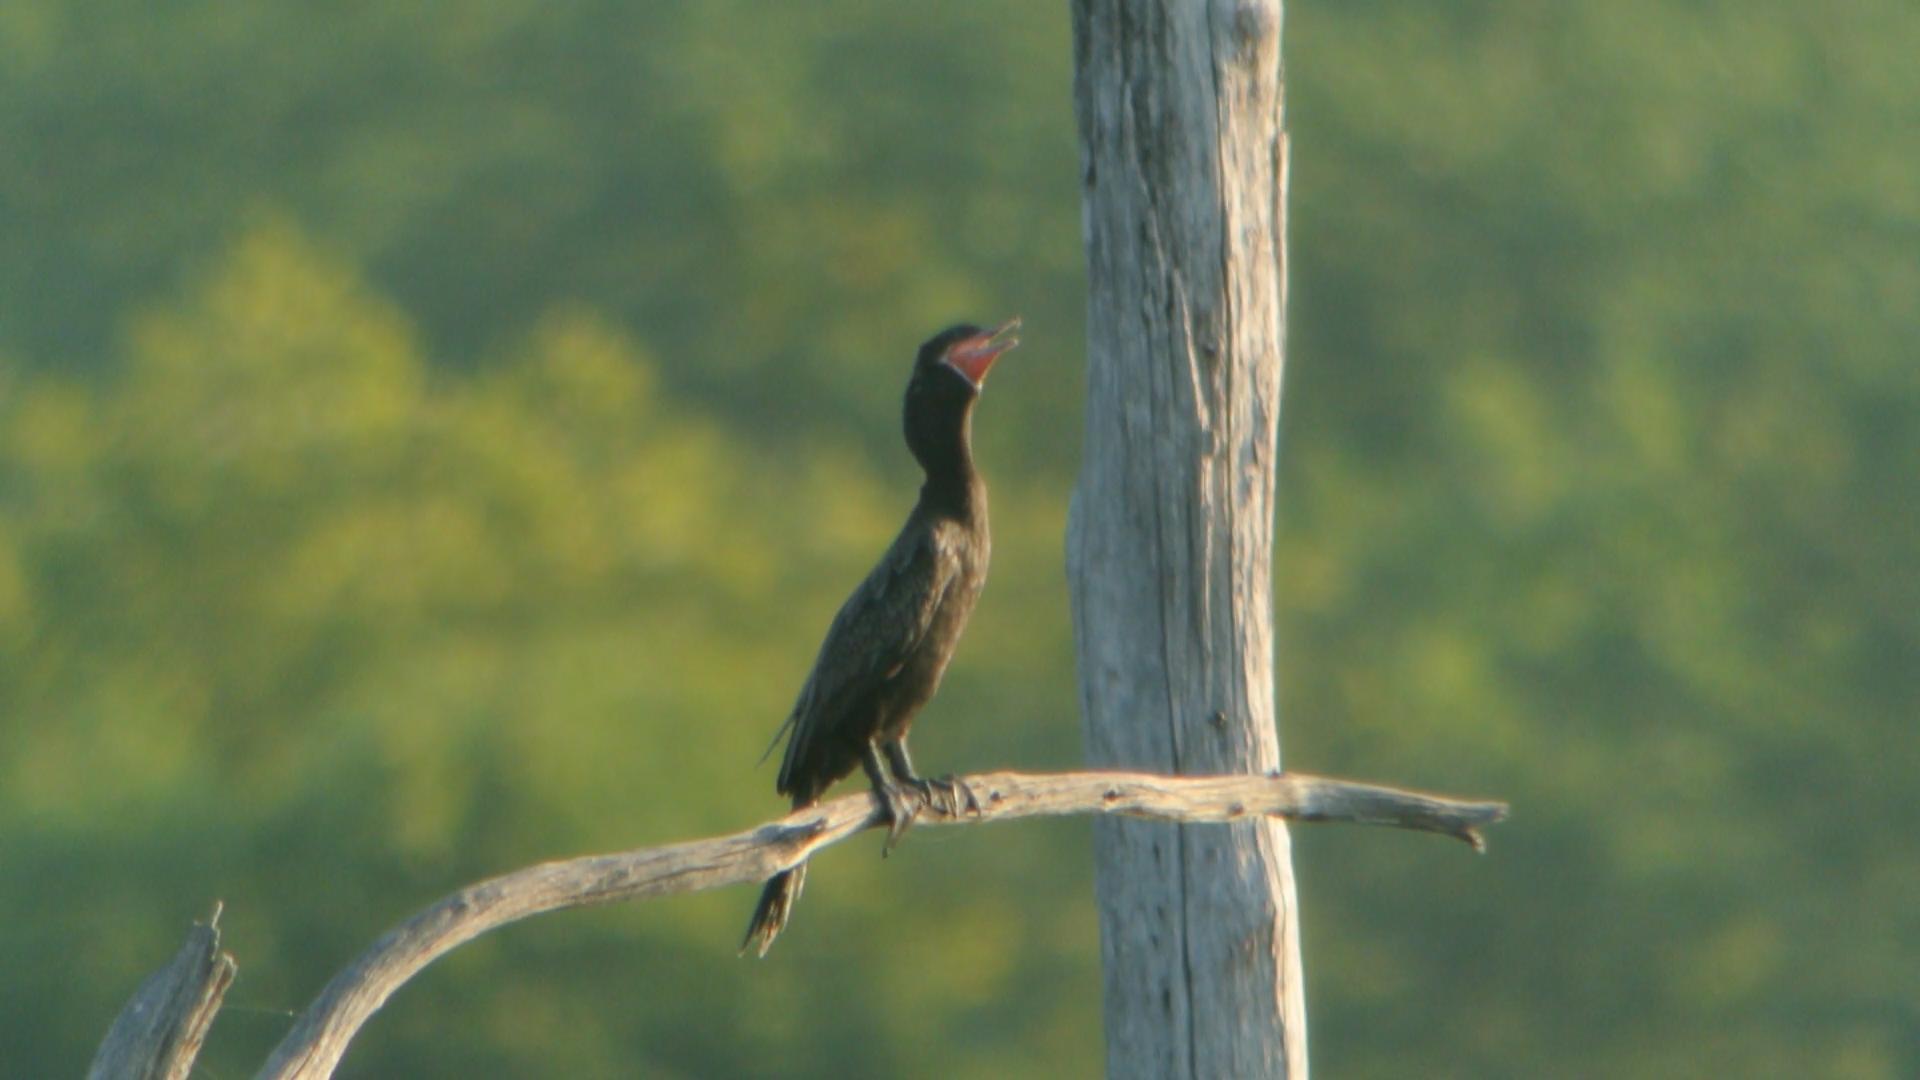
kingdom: Animalia
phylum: Chordata
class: Aves
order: Suliformes
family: Phalacrocoracidae
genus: Phalacrocorax
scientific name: Phalacrocorax brasilianus
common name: Neotropic cormorant
